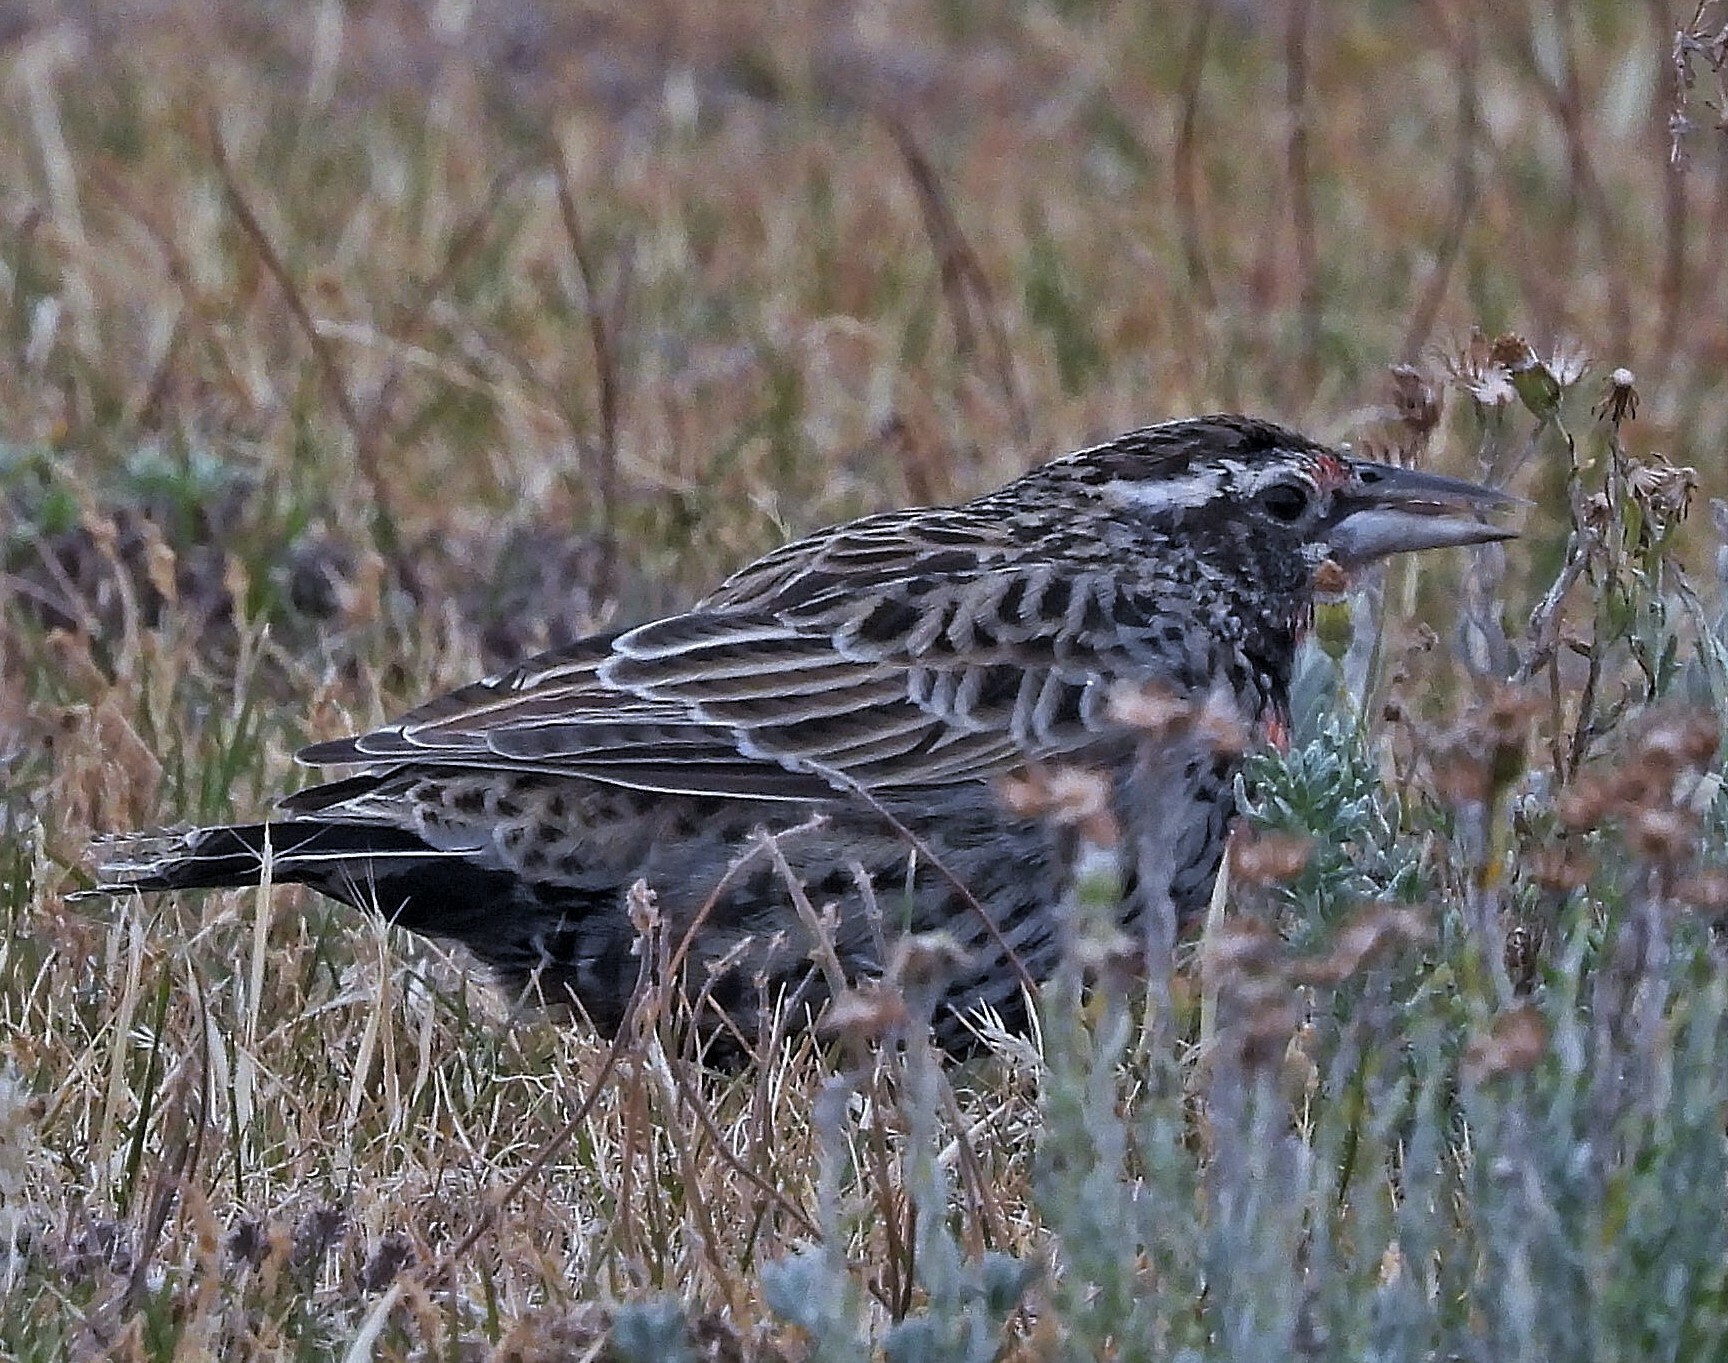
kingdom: Animalia
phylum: Chordata
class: Aves
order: Passeriformes
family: Icteridae
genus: Sturnella
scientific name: Sturnella loyca
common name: Long-tailed meadowlark
